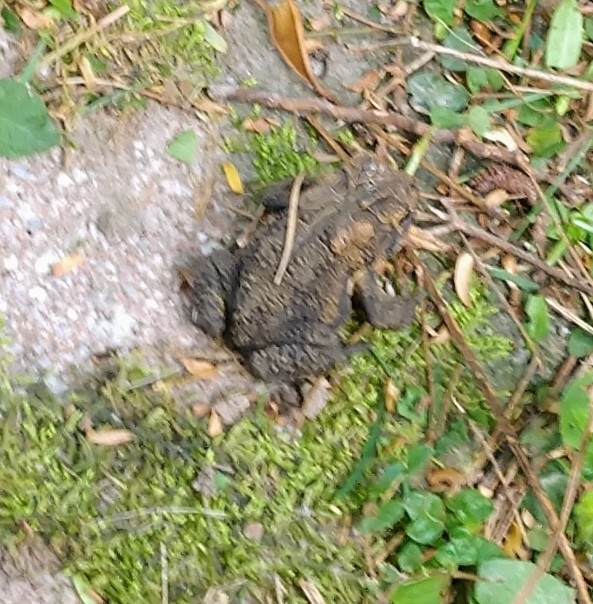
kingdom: Animalia
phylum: Chordata
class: Amphibia
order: Anura
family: Bufonidae
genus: Anaxyrus
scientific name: Anaxyrus terrestris
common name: Southern toad
